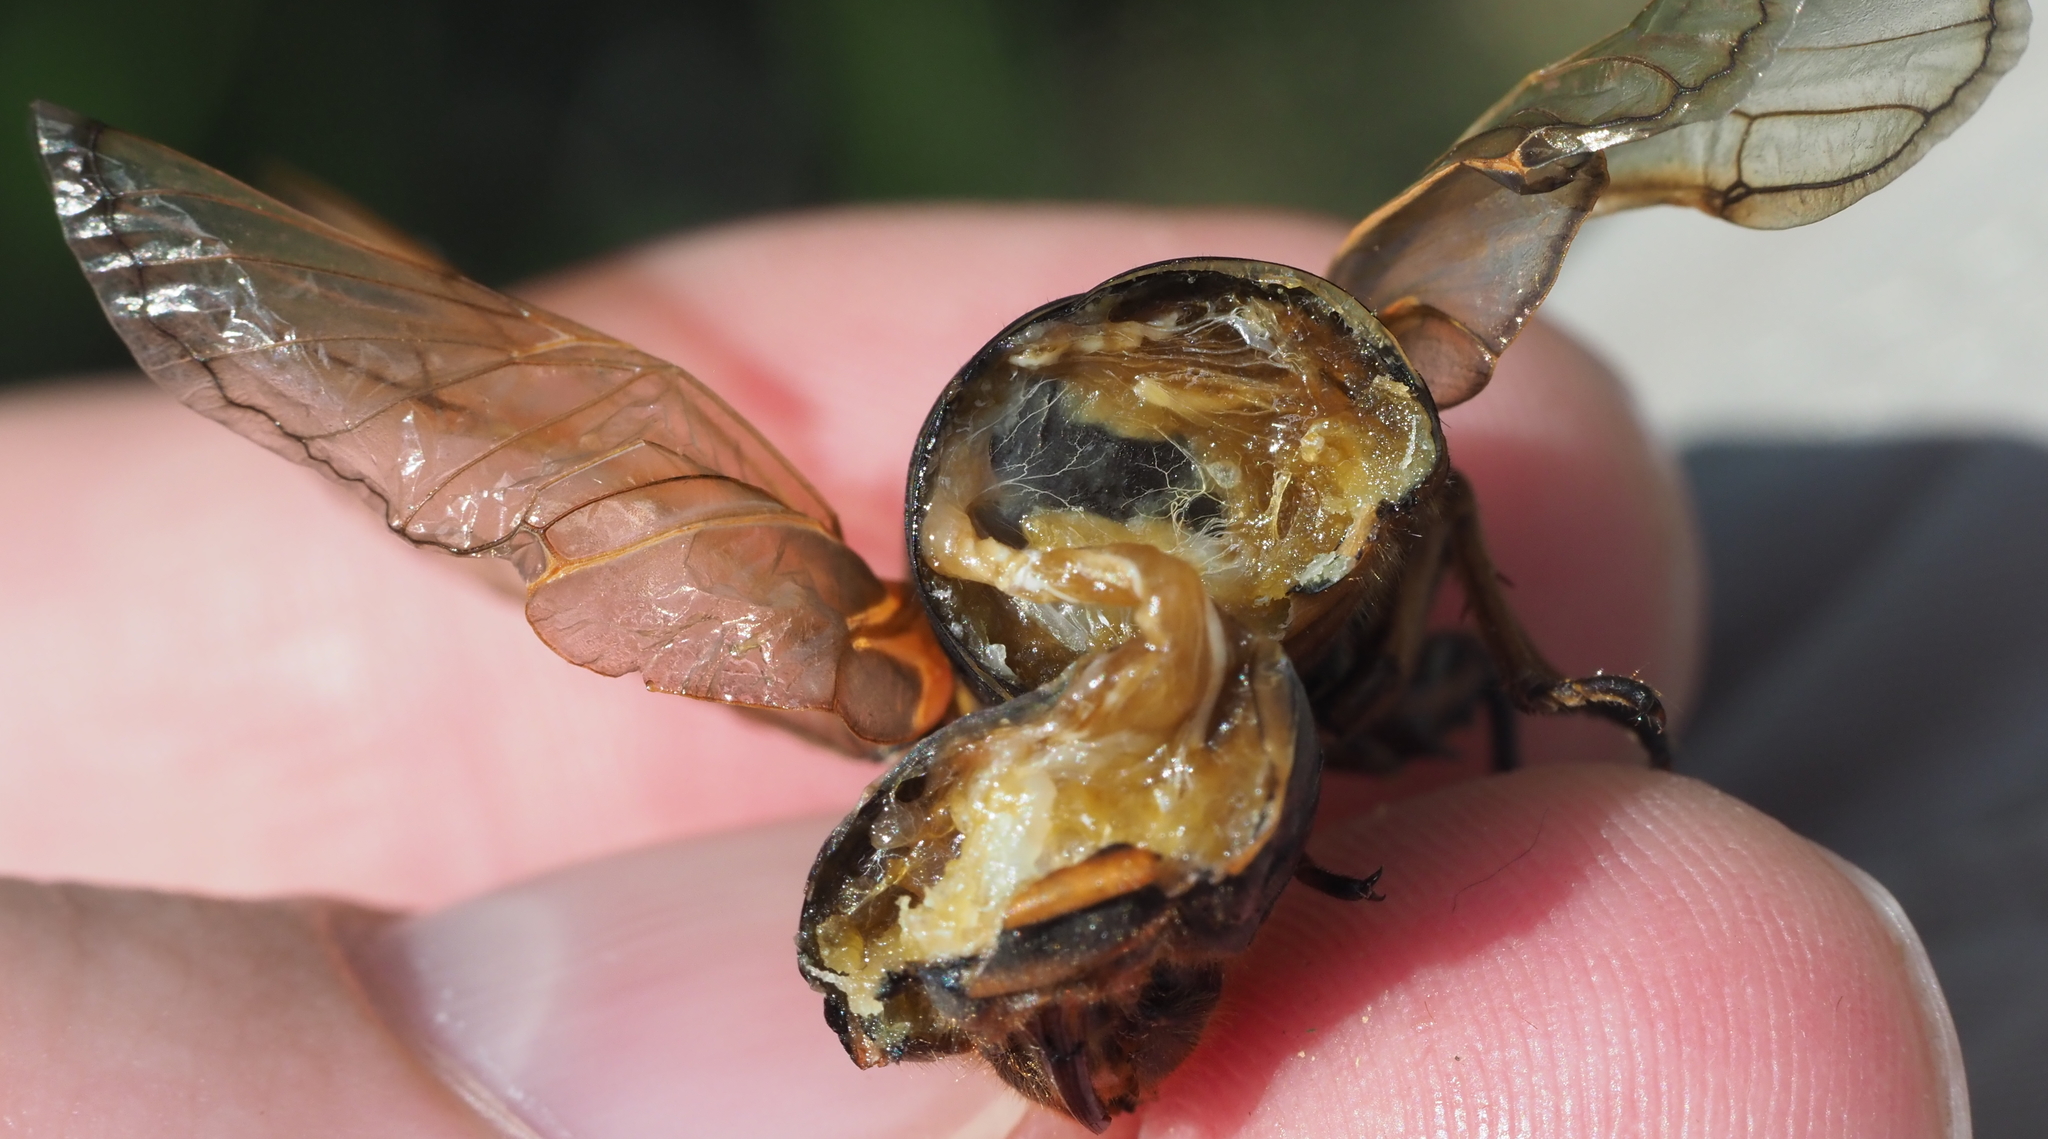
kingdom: Animalia
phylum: Arthropoda
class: Insecta
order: Hemiptera
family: Cicadidae
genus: Magicicada
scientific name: Magicicada septendecim
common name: Periodical cicada
